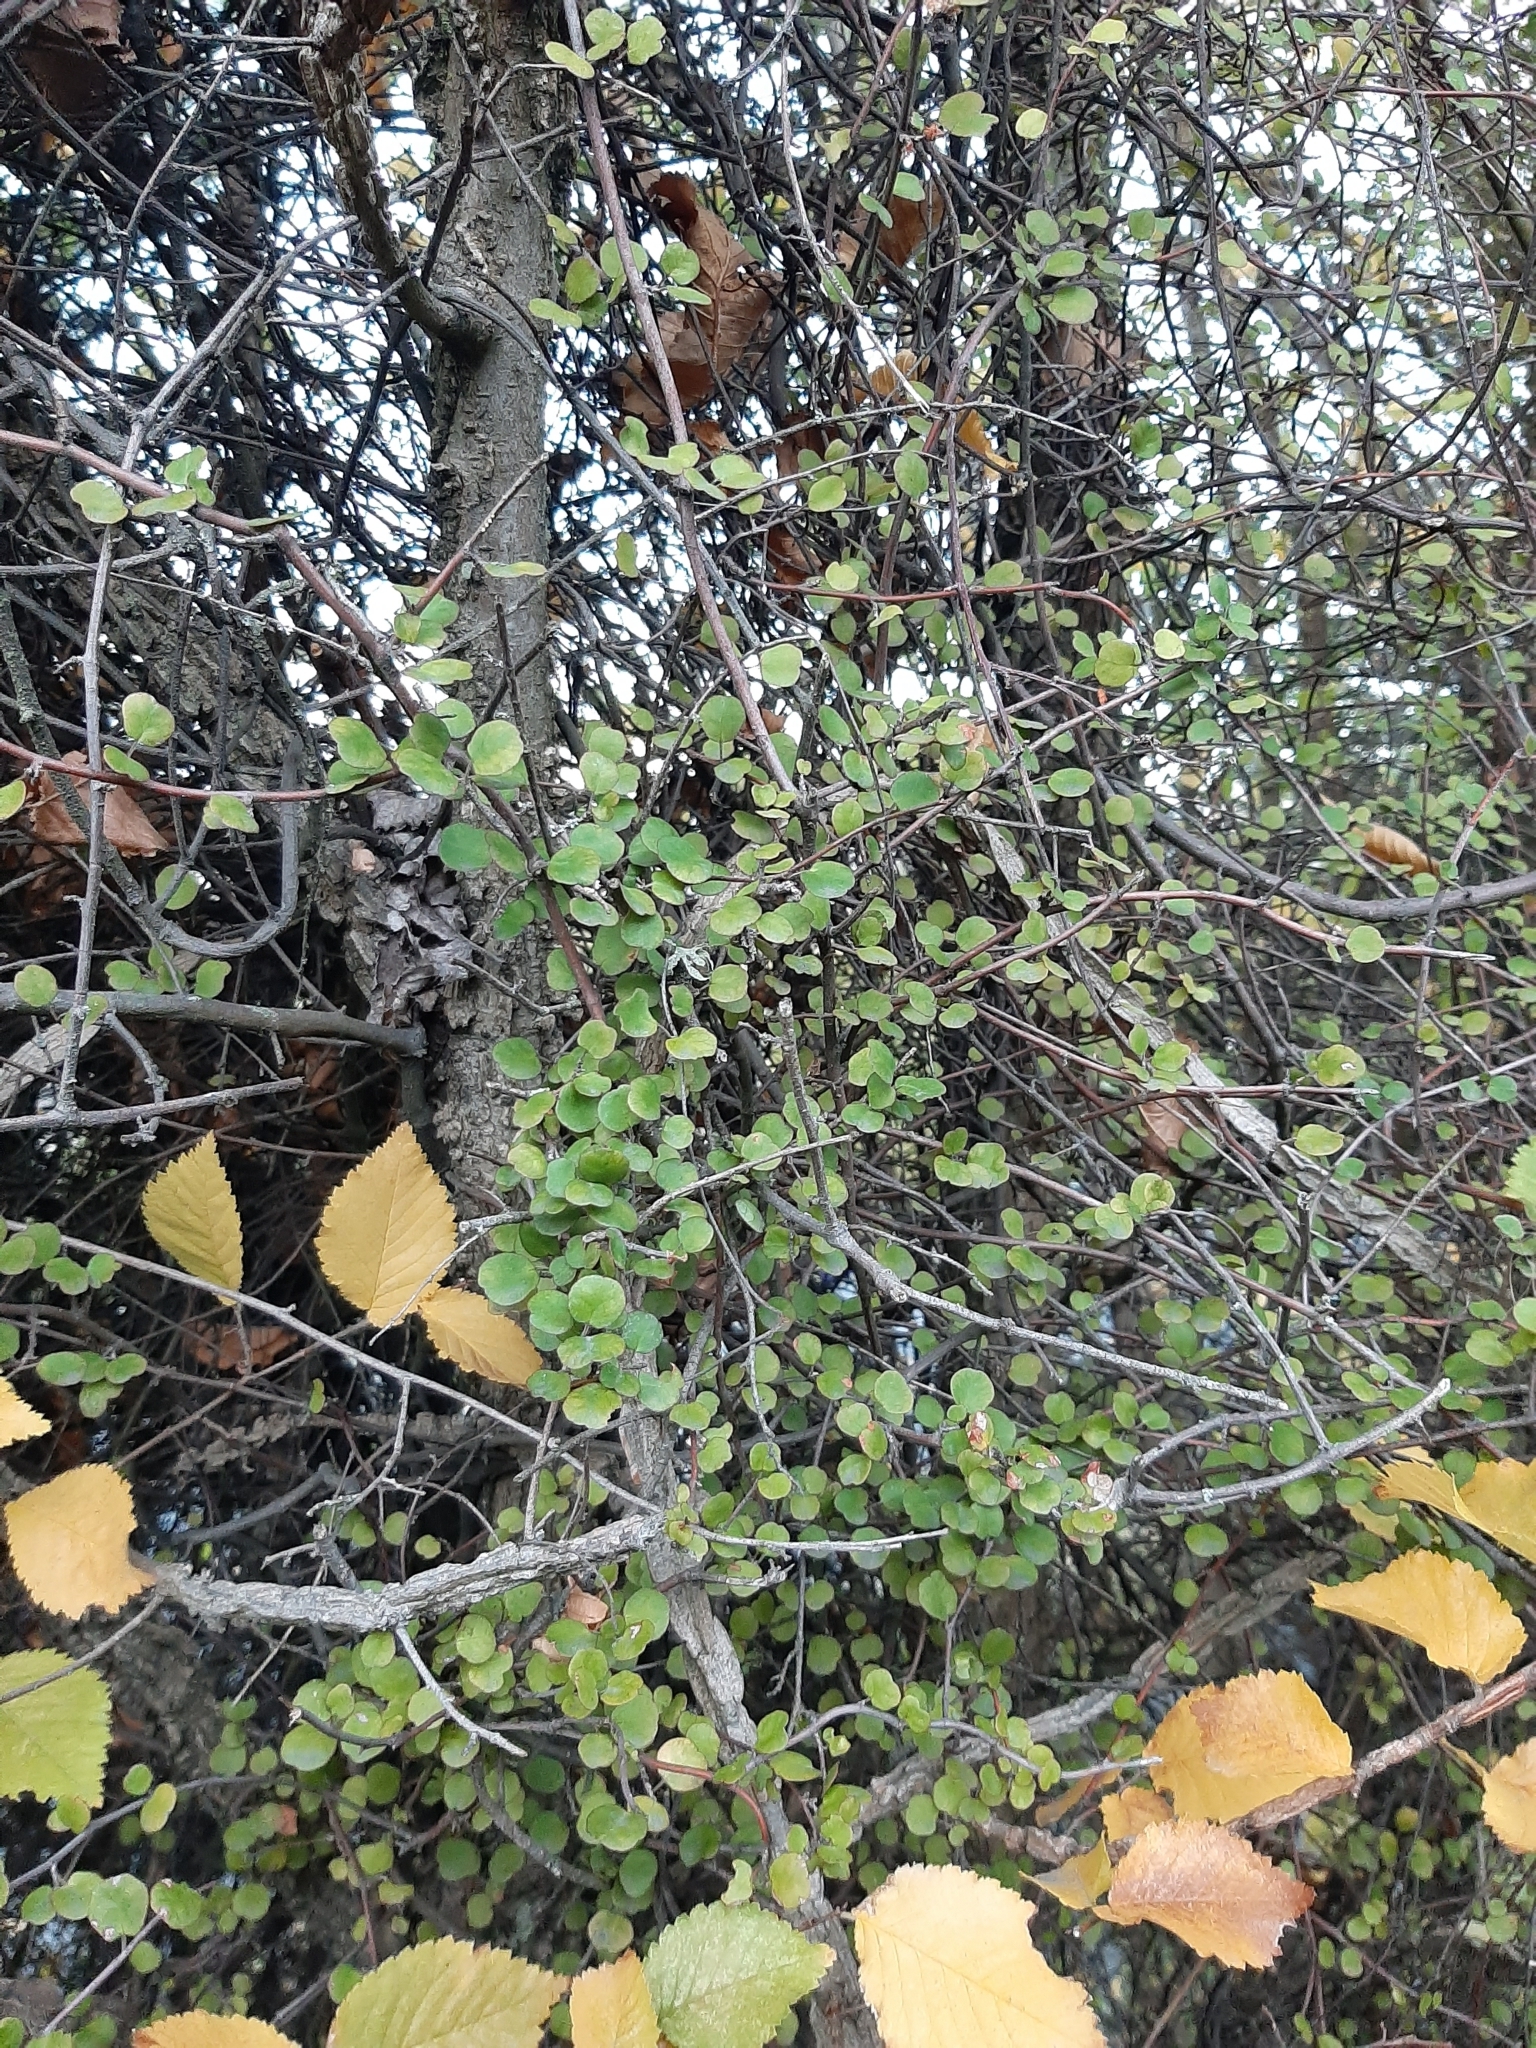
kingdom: Plantae
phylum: Tracheophyta
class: Magnoliopsida
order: Caryophyllales
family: Polygonaceae
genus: Muehlenbeckia
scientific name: Muehlenbeckia complexa
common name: Wireplant
